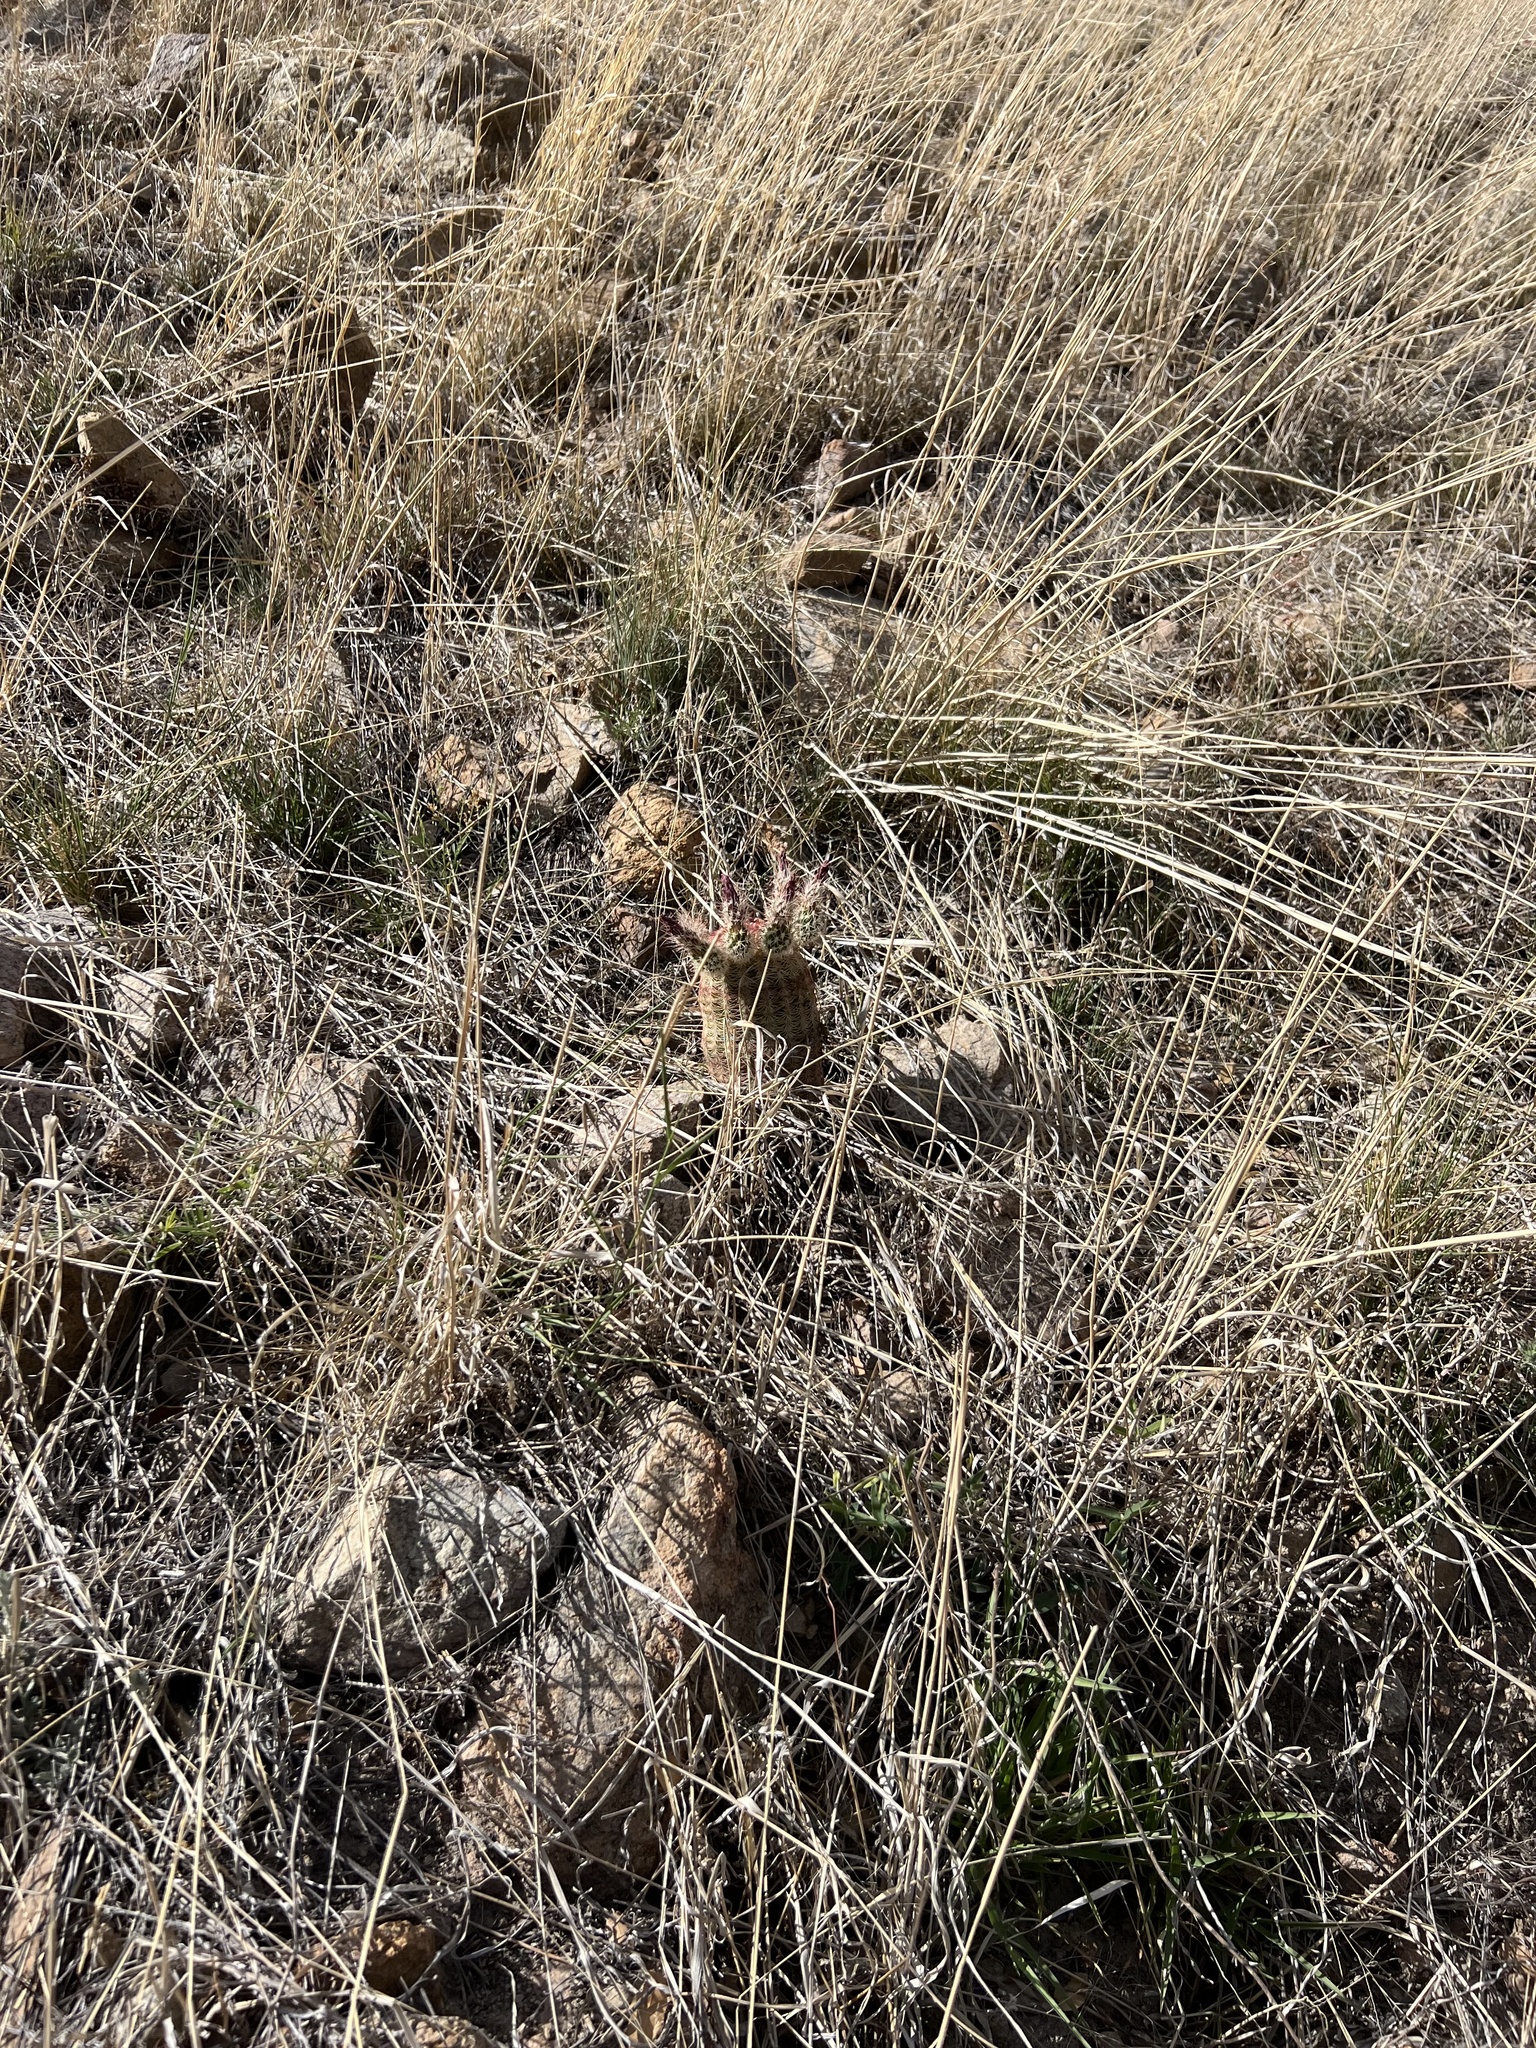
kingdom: Plantae
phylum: Tracheophyta
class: Magnoliopsida
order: Caryophyllales
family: Cactaceae
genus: Echinocereus
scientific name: Echinocereus rigidissimus
